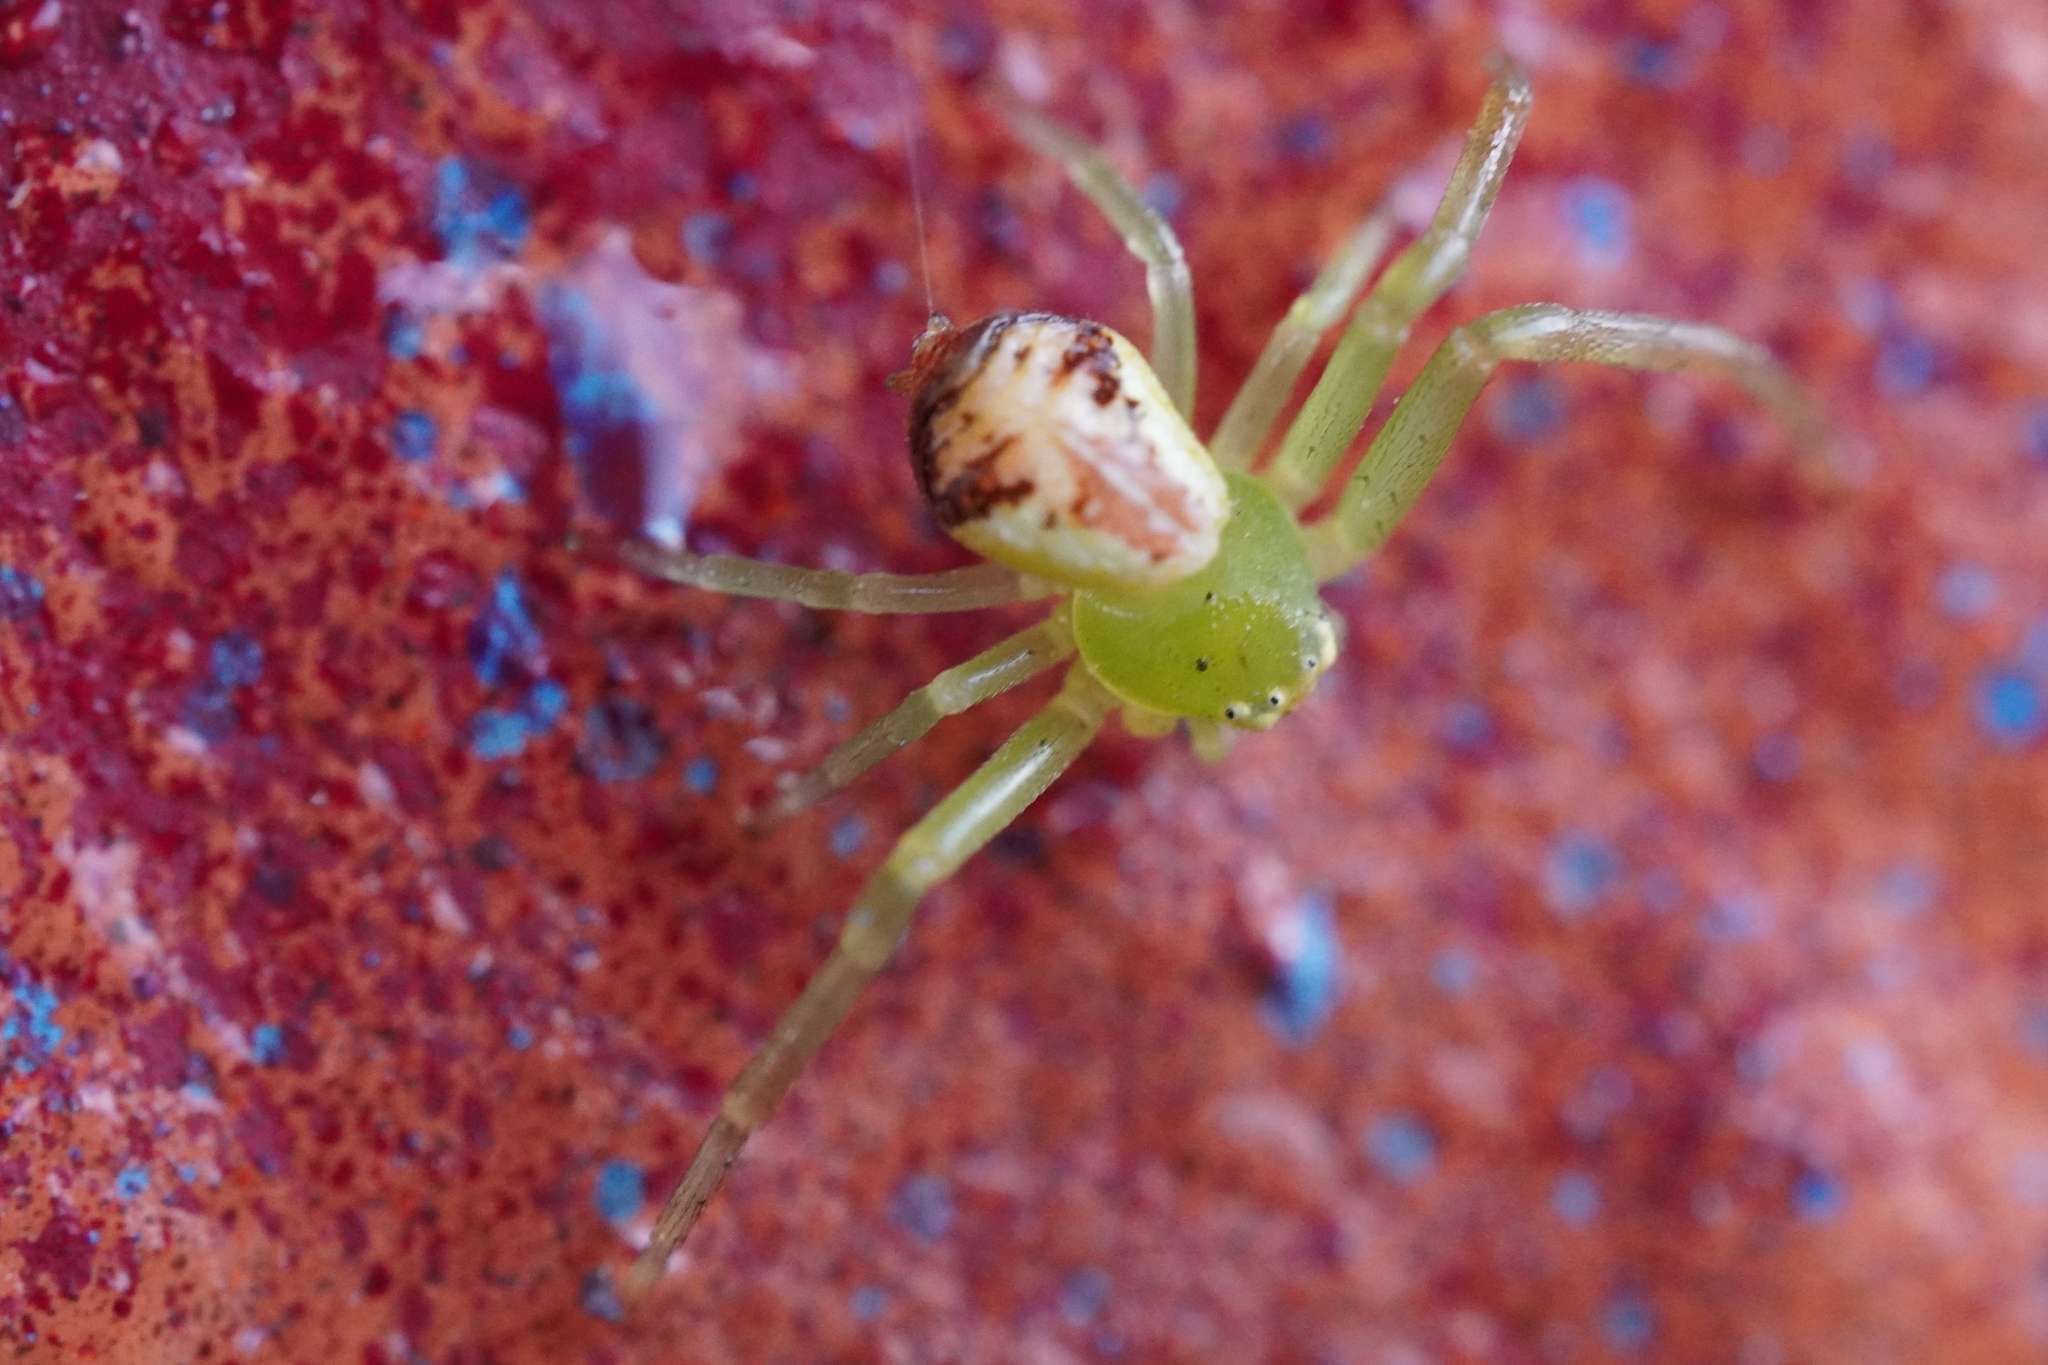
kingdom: Animalia
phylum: Arthropoda
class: Arachnida
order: Araneae
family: Thomisidae
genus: Ebrechtella
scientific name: Ebrechtella tricuspidata
